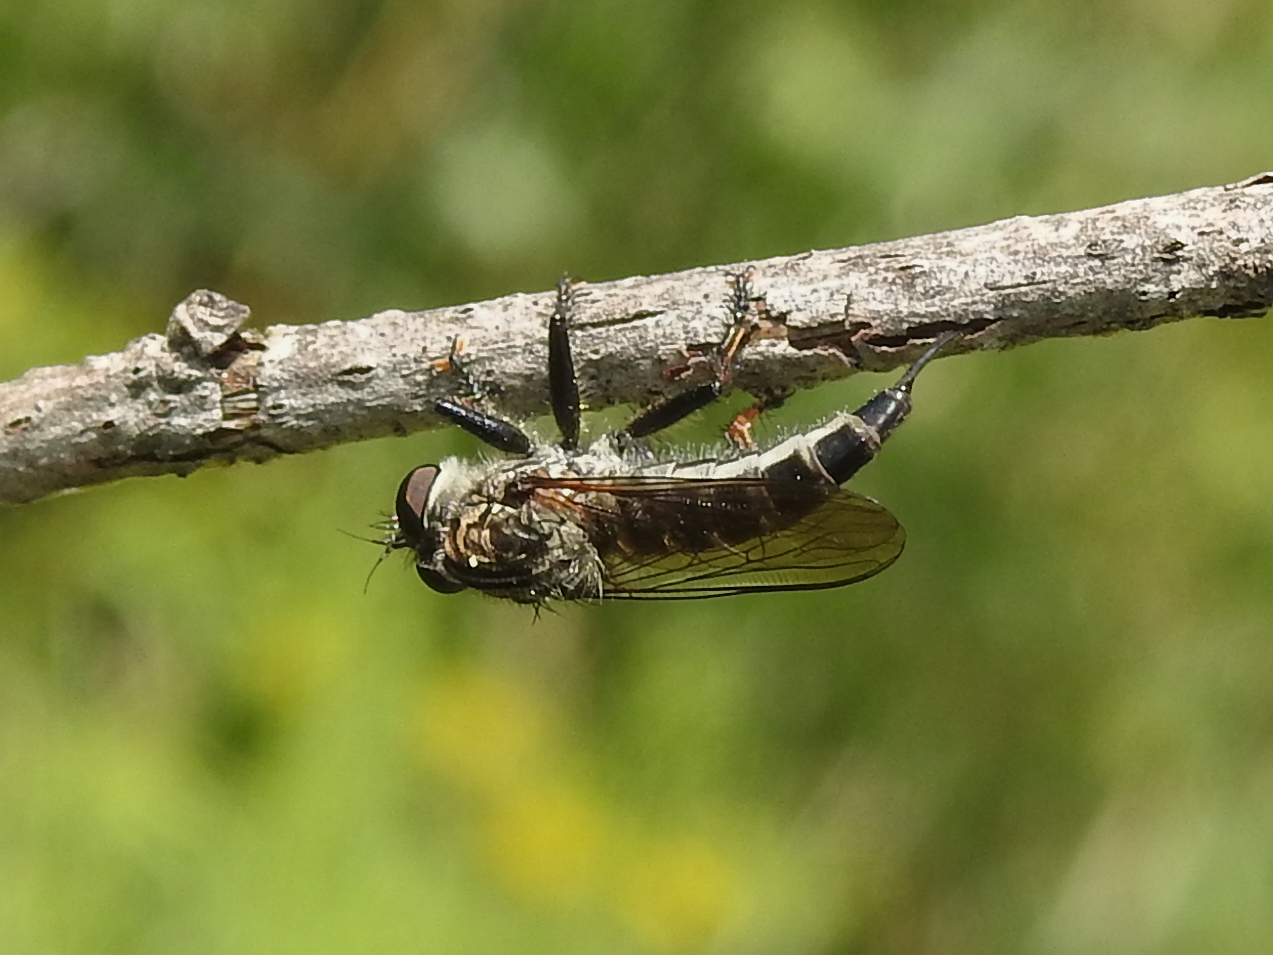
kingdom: Animalia
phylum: Arthropoda
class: Insecta
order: Diptera
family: Asilidae
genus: Efferia
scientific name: Efferia aestuans
